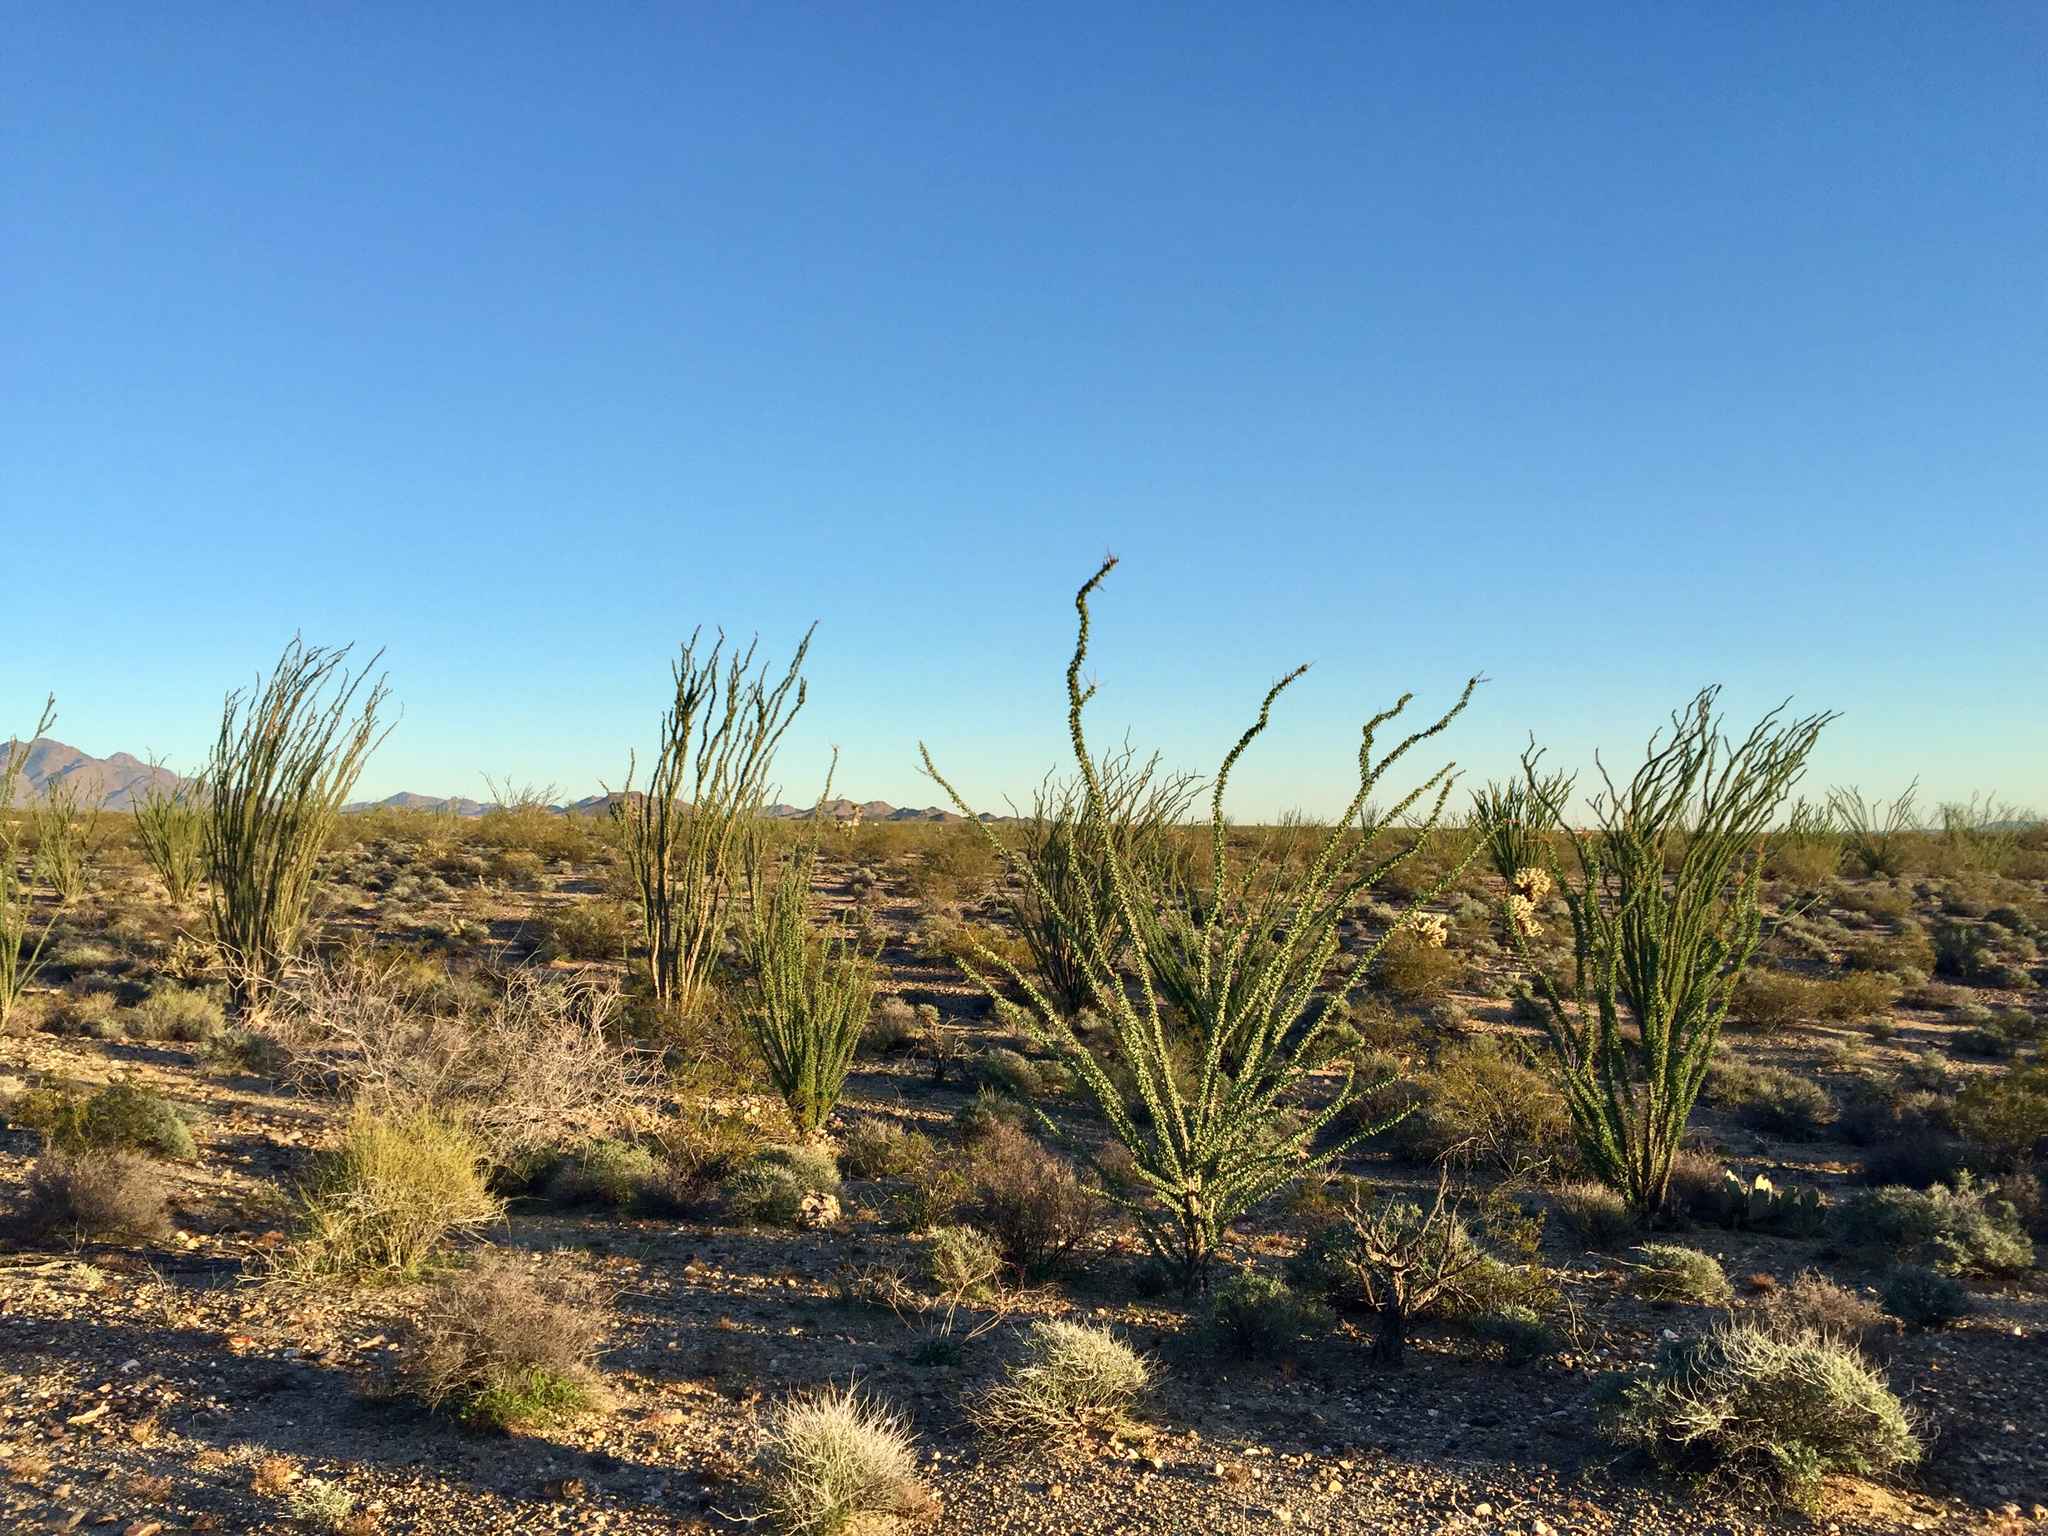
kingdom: Plantae
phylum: Tracheophyta
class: Magnoliopsida
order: Ericales
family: Fouquieriaceae
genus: Fouquieria
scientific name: Fouquieria splendens
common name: Vine-cactus
